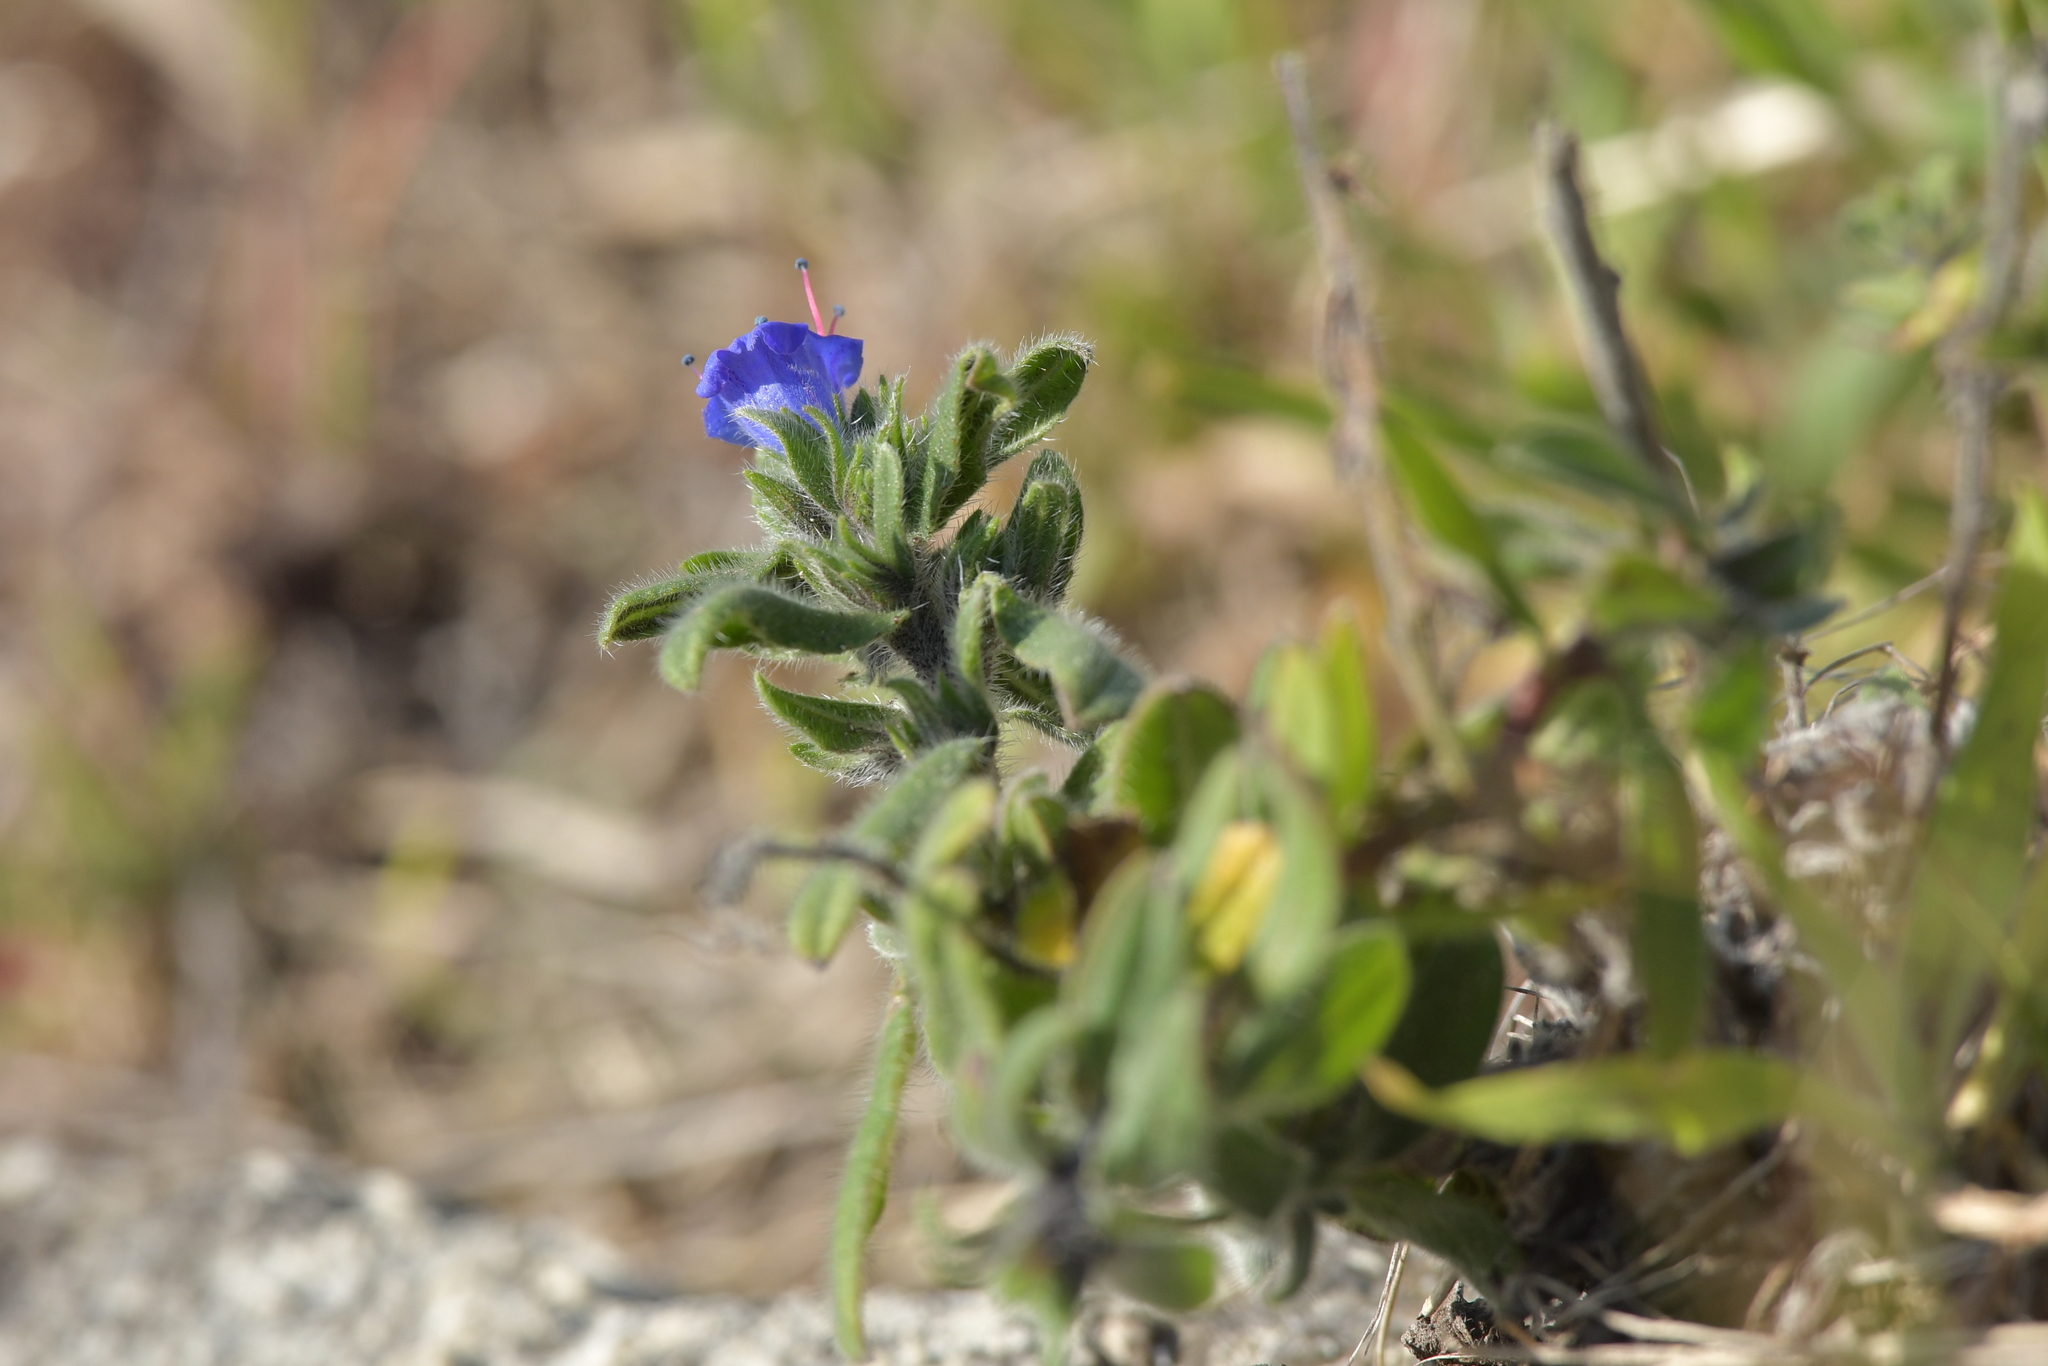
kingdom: Plantae
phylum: Tracheophyta
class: Magnoliopsida
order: Boraginales
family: Boraginaceae
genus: Echium
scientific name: Echium vulgare
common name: Common viper's bugloss
